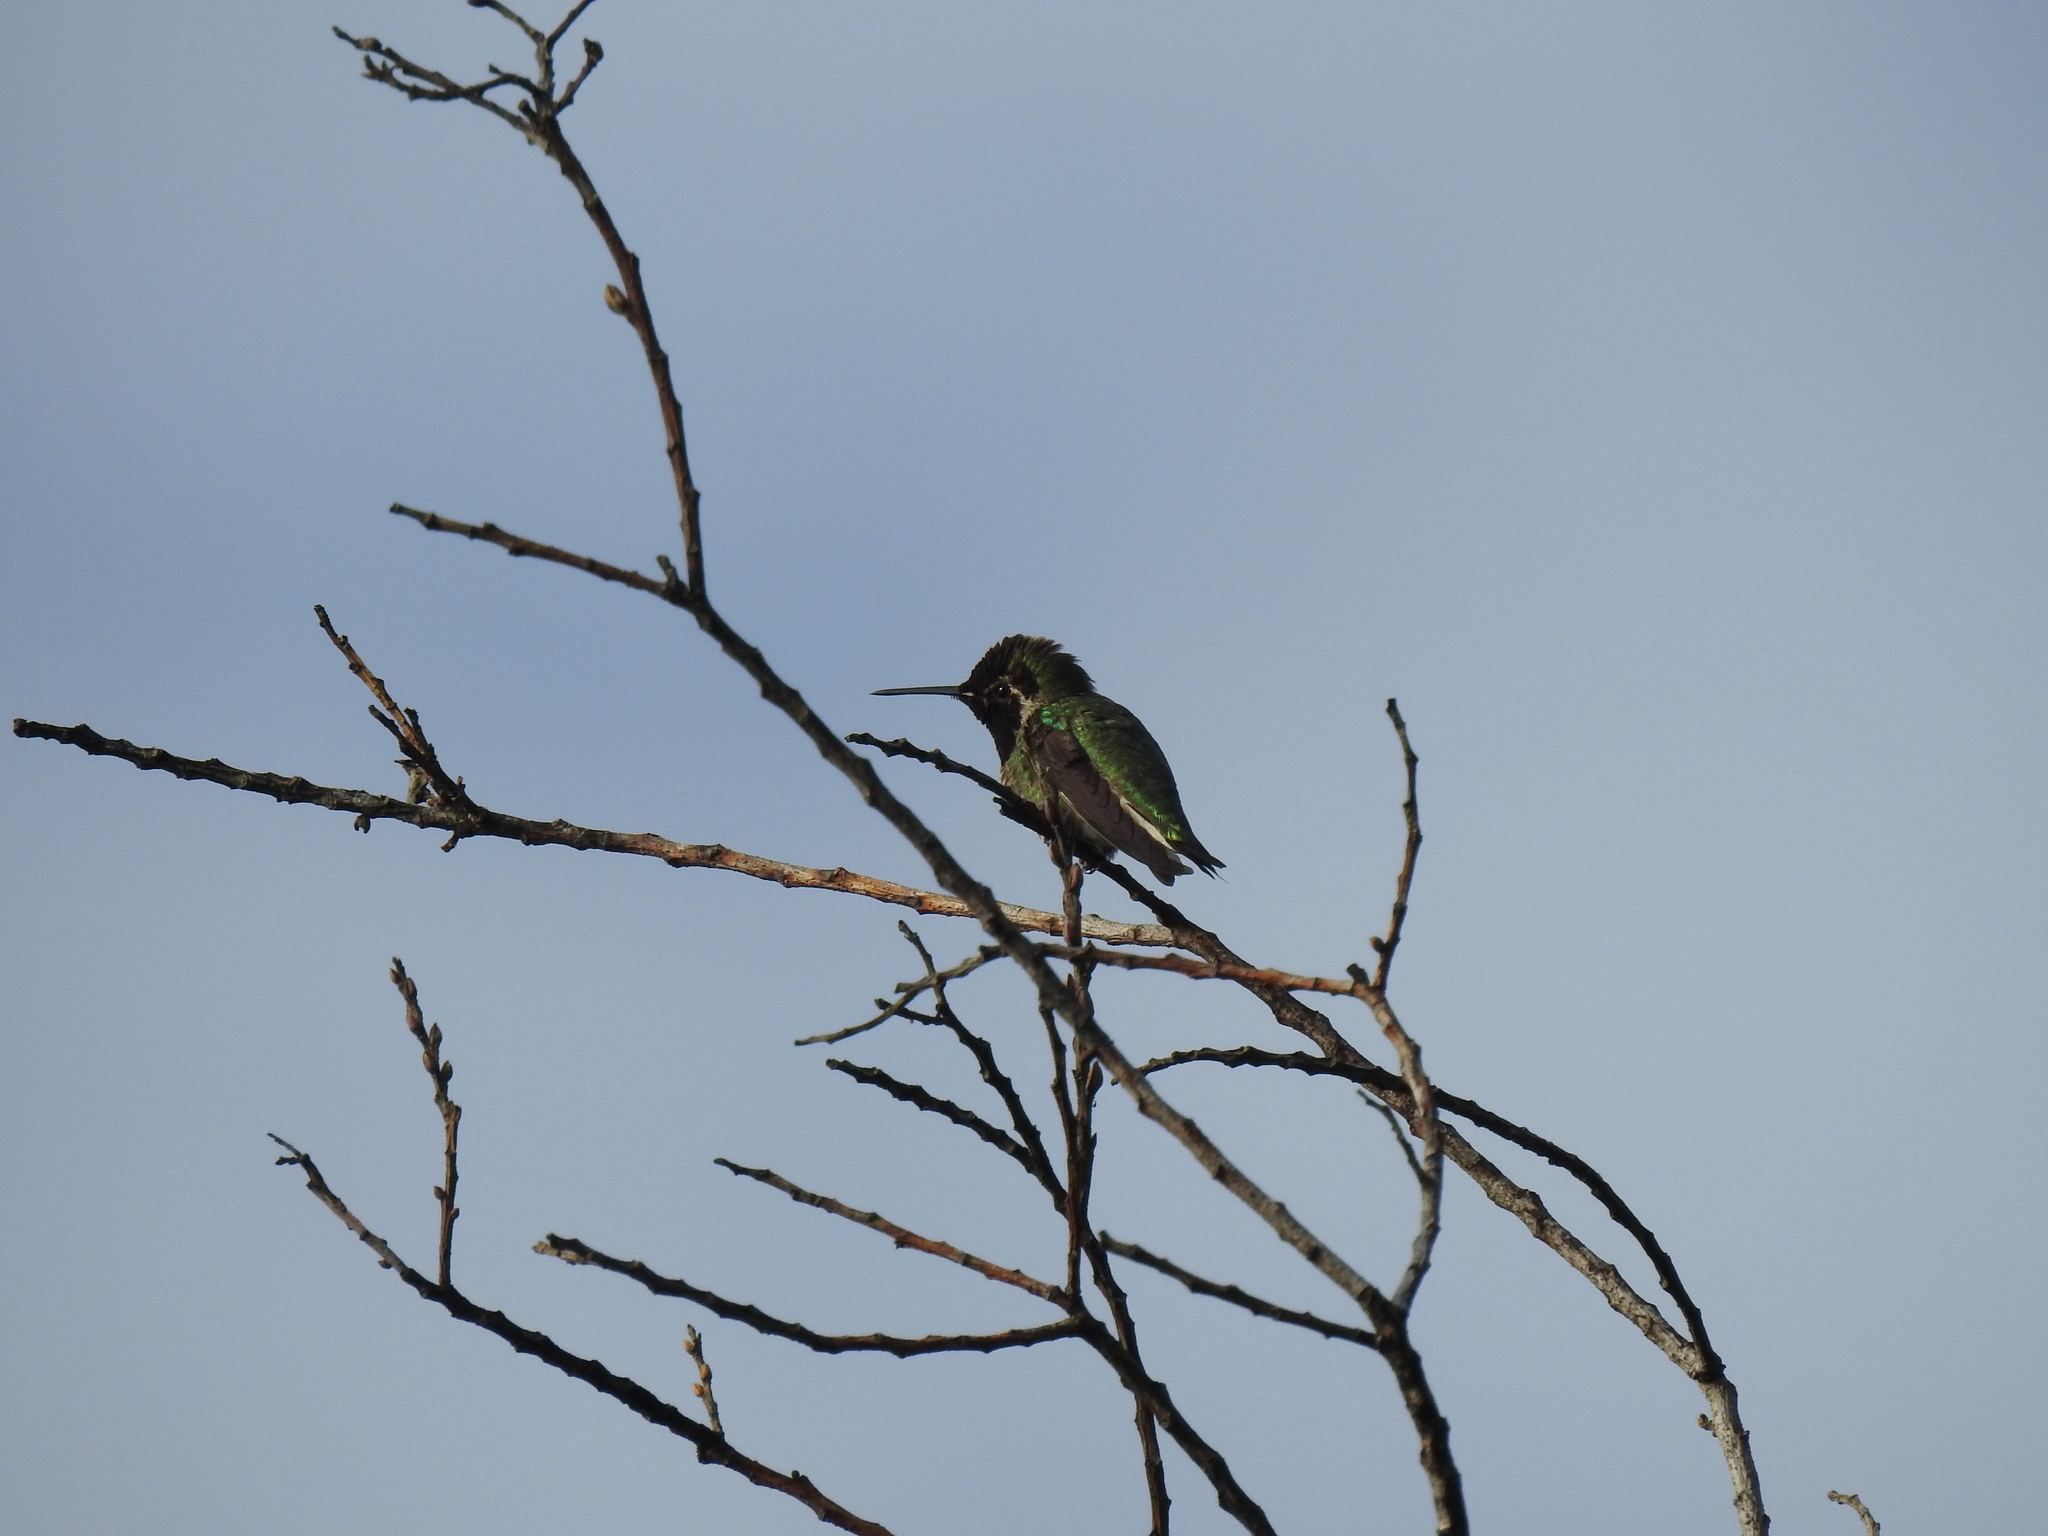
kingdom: Animalia
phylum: Chordata
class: Aves
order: Apodiformes
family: Trochilidae
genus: Calypte
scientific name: Calypte anna
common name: Anna's hummingbird
